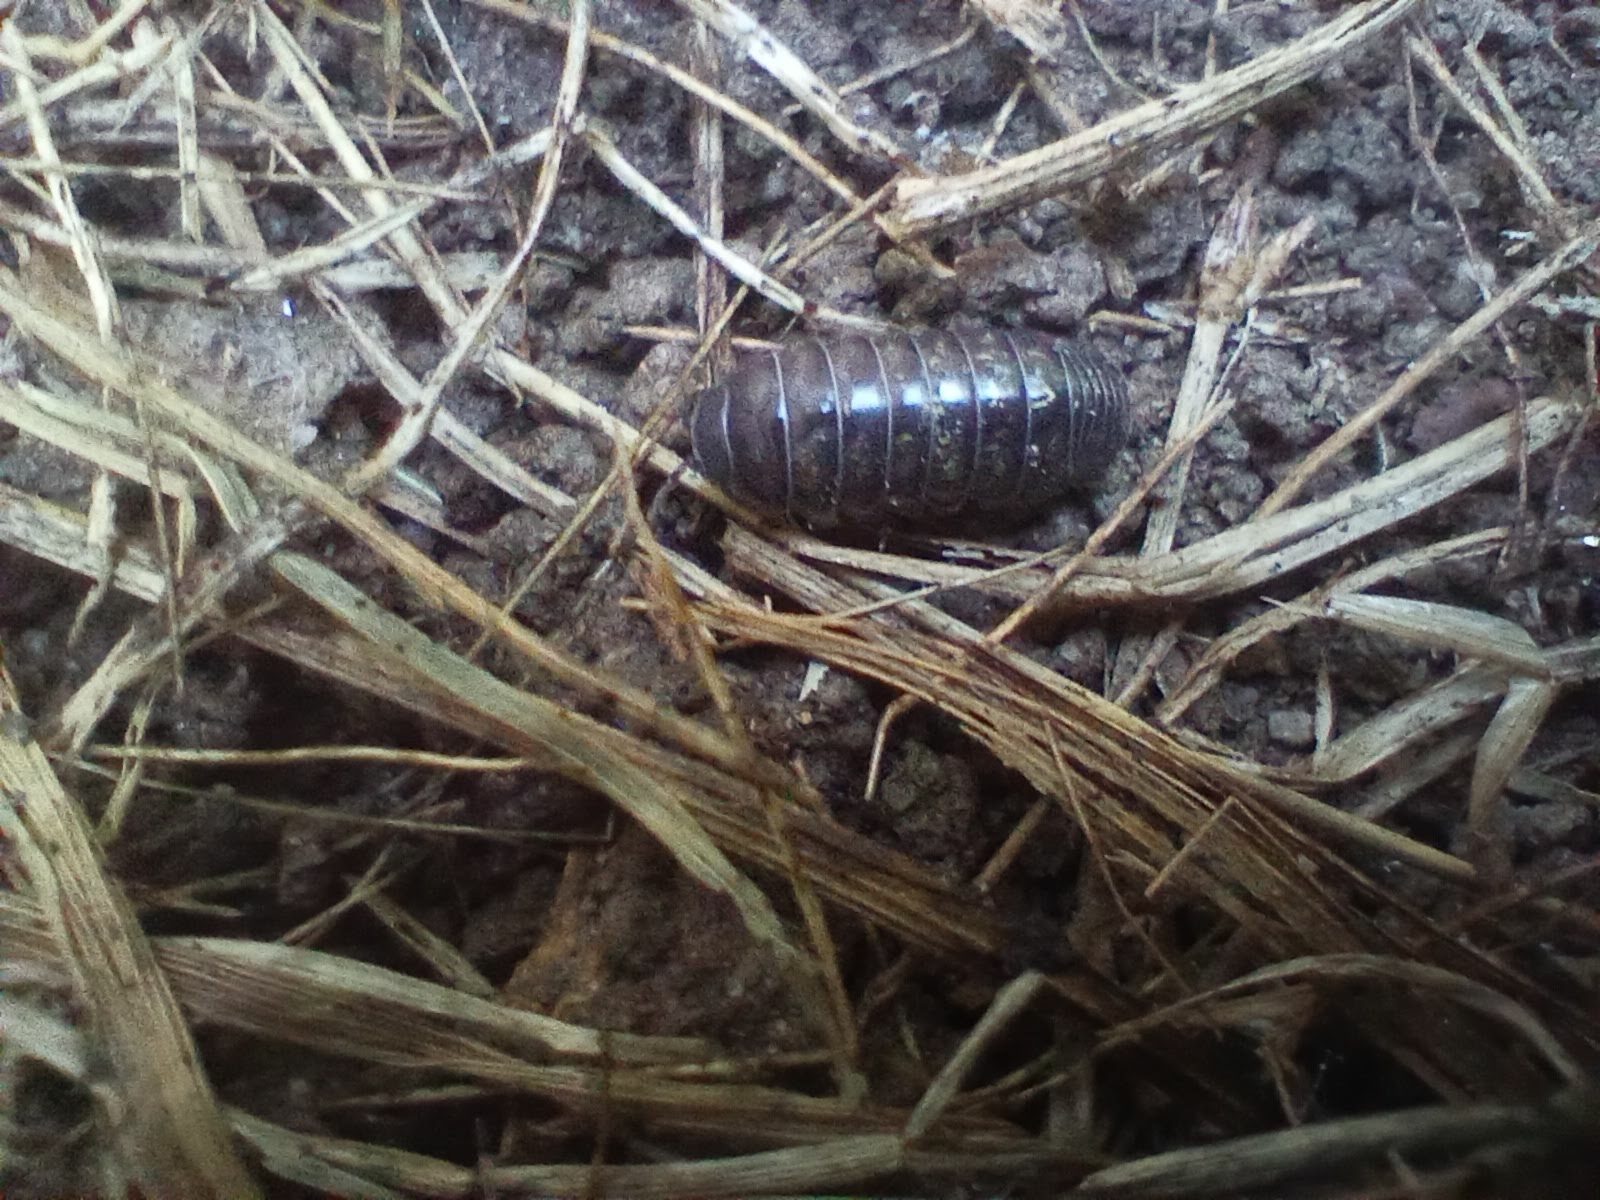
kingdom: Animalia
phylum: Arthropoda
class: Malacostraca
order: Isopoda
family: Armadillidiidae
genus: Armadillidium
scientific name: Armadillidium vulgare
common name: Common pill woodlouse
